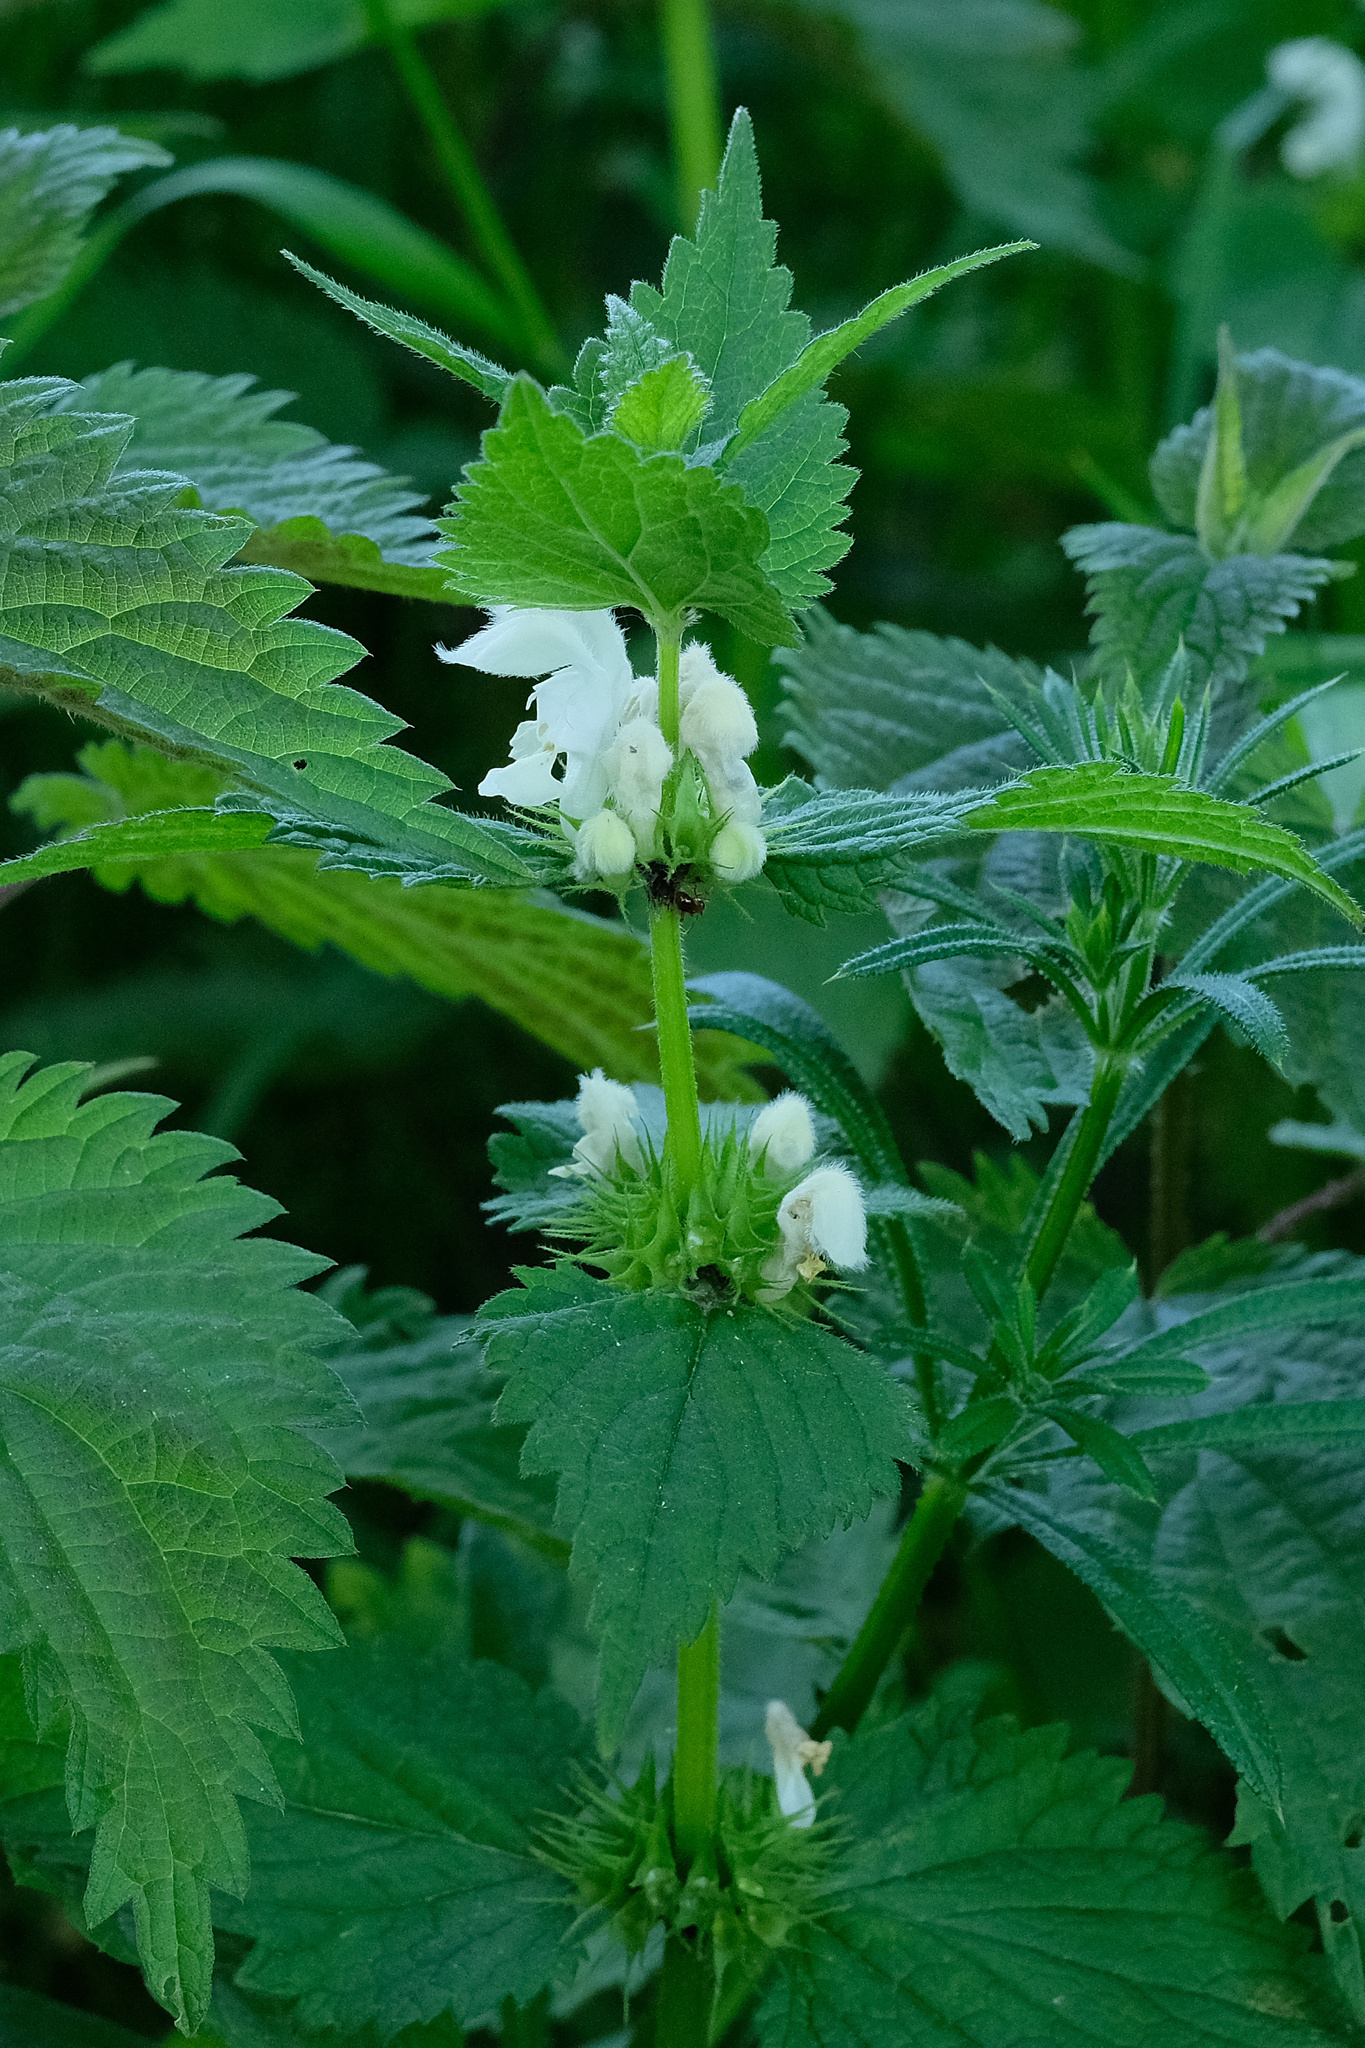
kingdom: Plantae
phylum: Tracheophyta
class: Magnoliopsida
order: Lamiales
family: Lamiaceae
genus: Lamium
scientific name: Lamium album
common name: White dead-nettle
